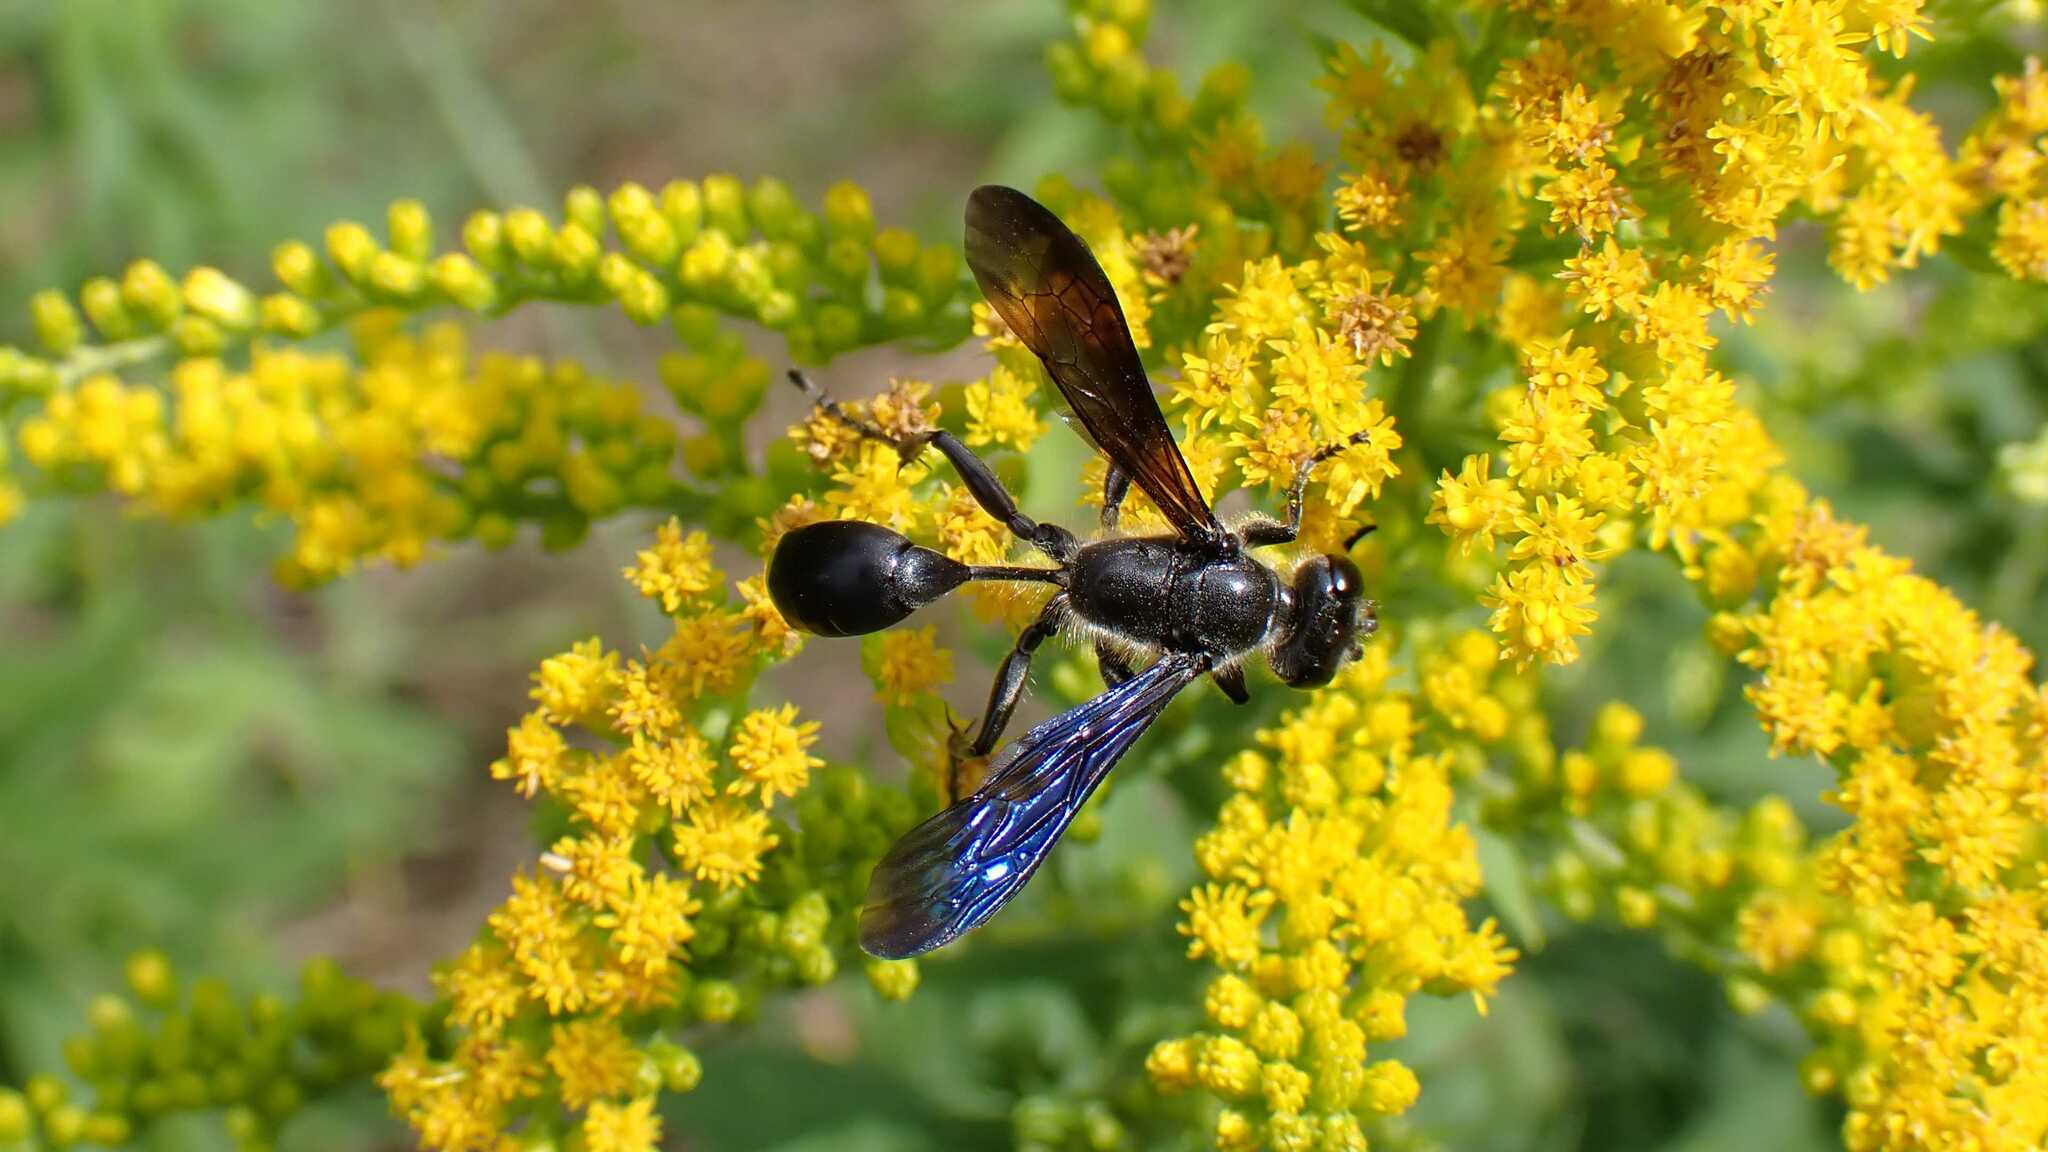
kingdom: Animalia
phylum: Arthropoda
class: Insecta
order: Hymenoptera
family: Sphecidae
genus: Isodontia
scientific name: Isodontia mexicana
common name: Mud dauber
